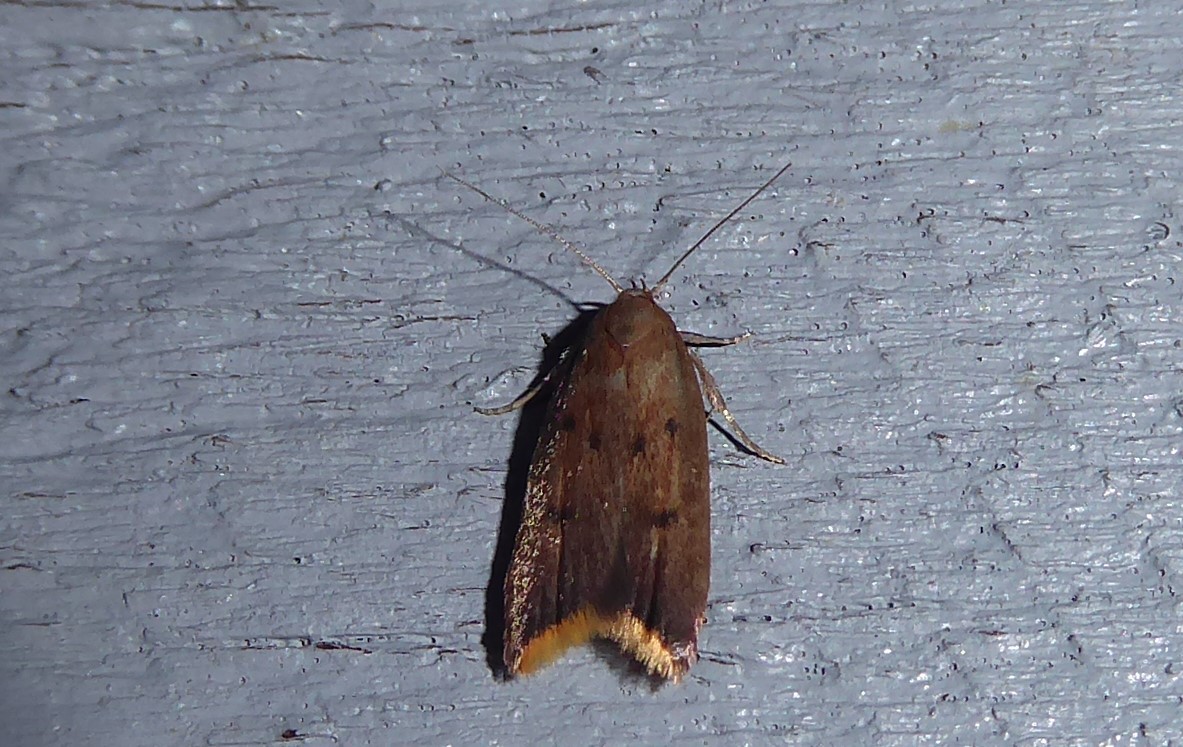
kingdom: Animalia
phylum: Arthropoda
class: Insecta
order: Lepidoptera
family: Oecophoridae
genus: Tachystola
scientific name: Tachystola acroxantha
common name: Ruddy streak
